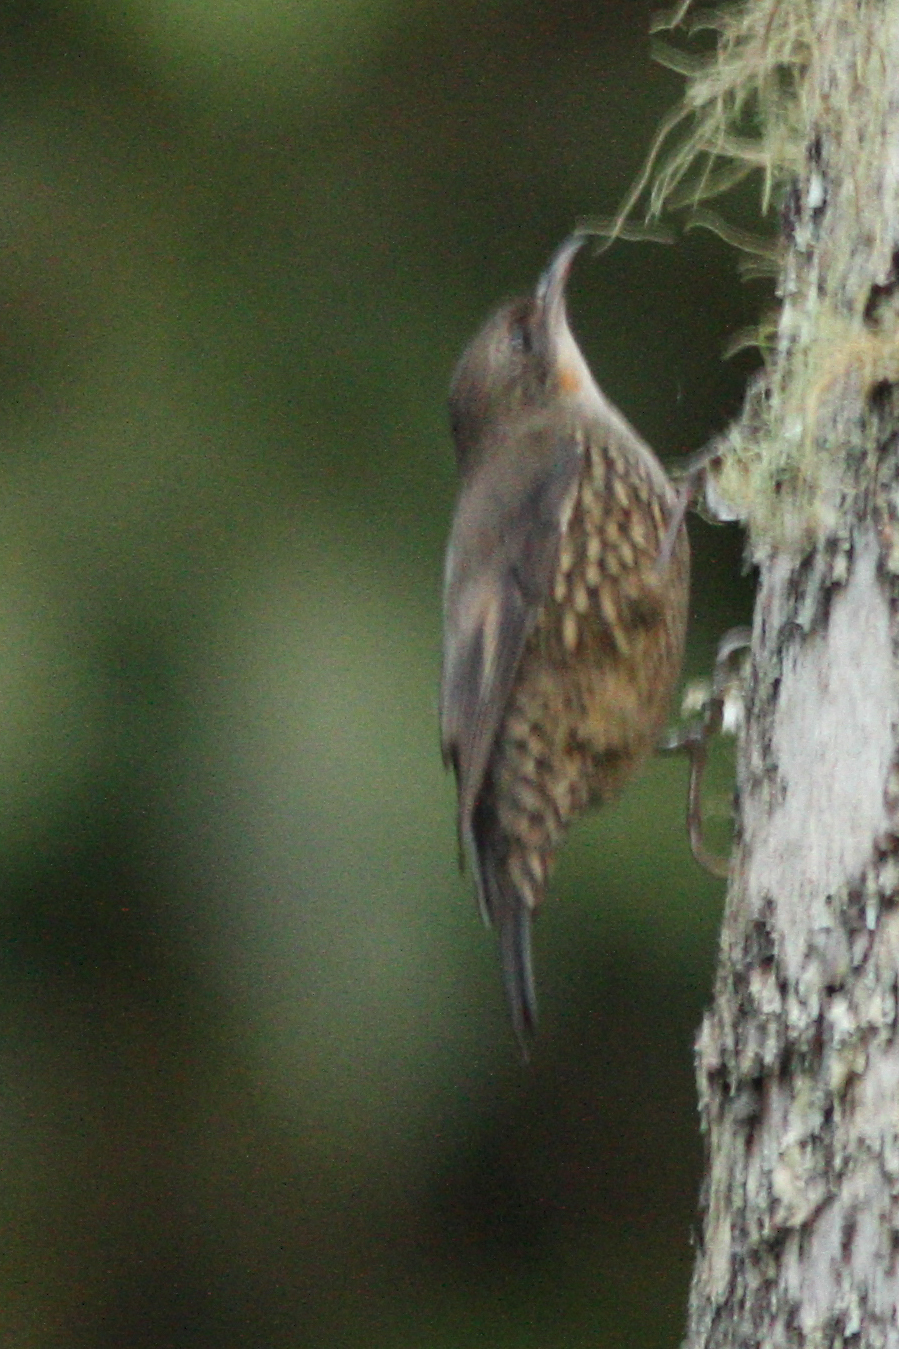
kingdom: Animalia
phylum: Chordata
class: Aves
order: Passeriformes
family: Climacteridae
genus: Cormobates
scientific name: Cormobates leucophaea
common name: White-throated treecreeper
